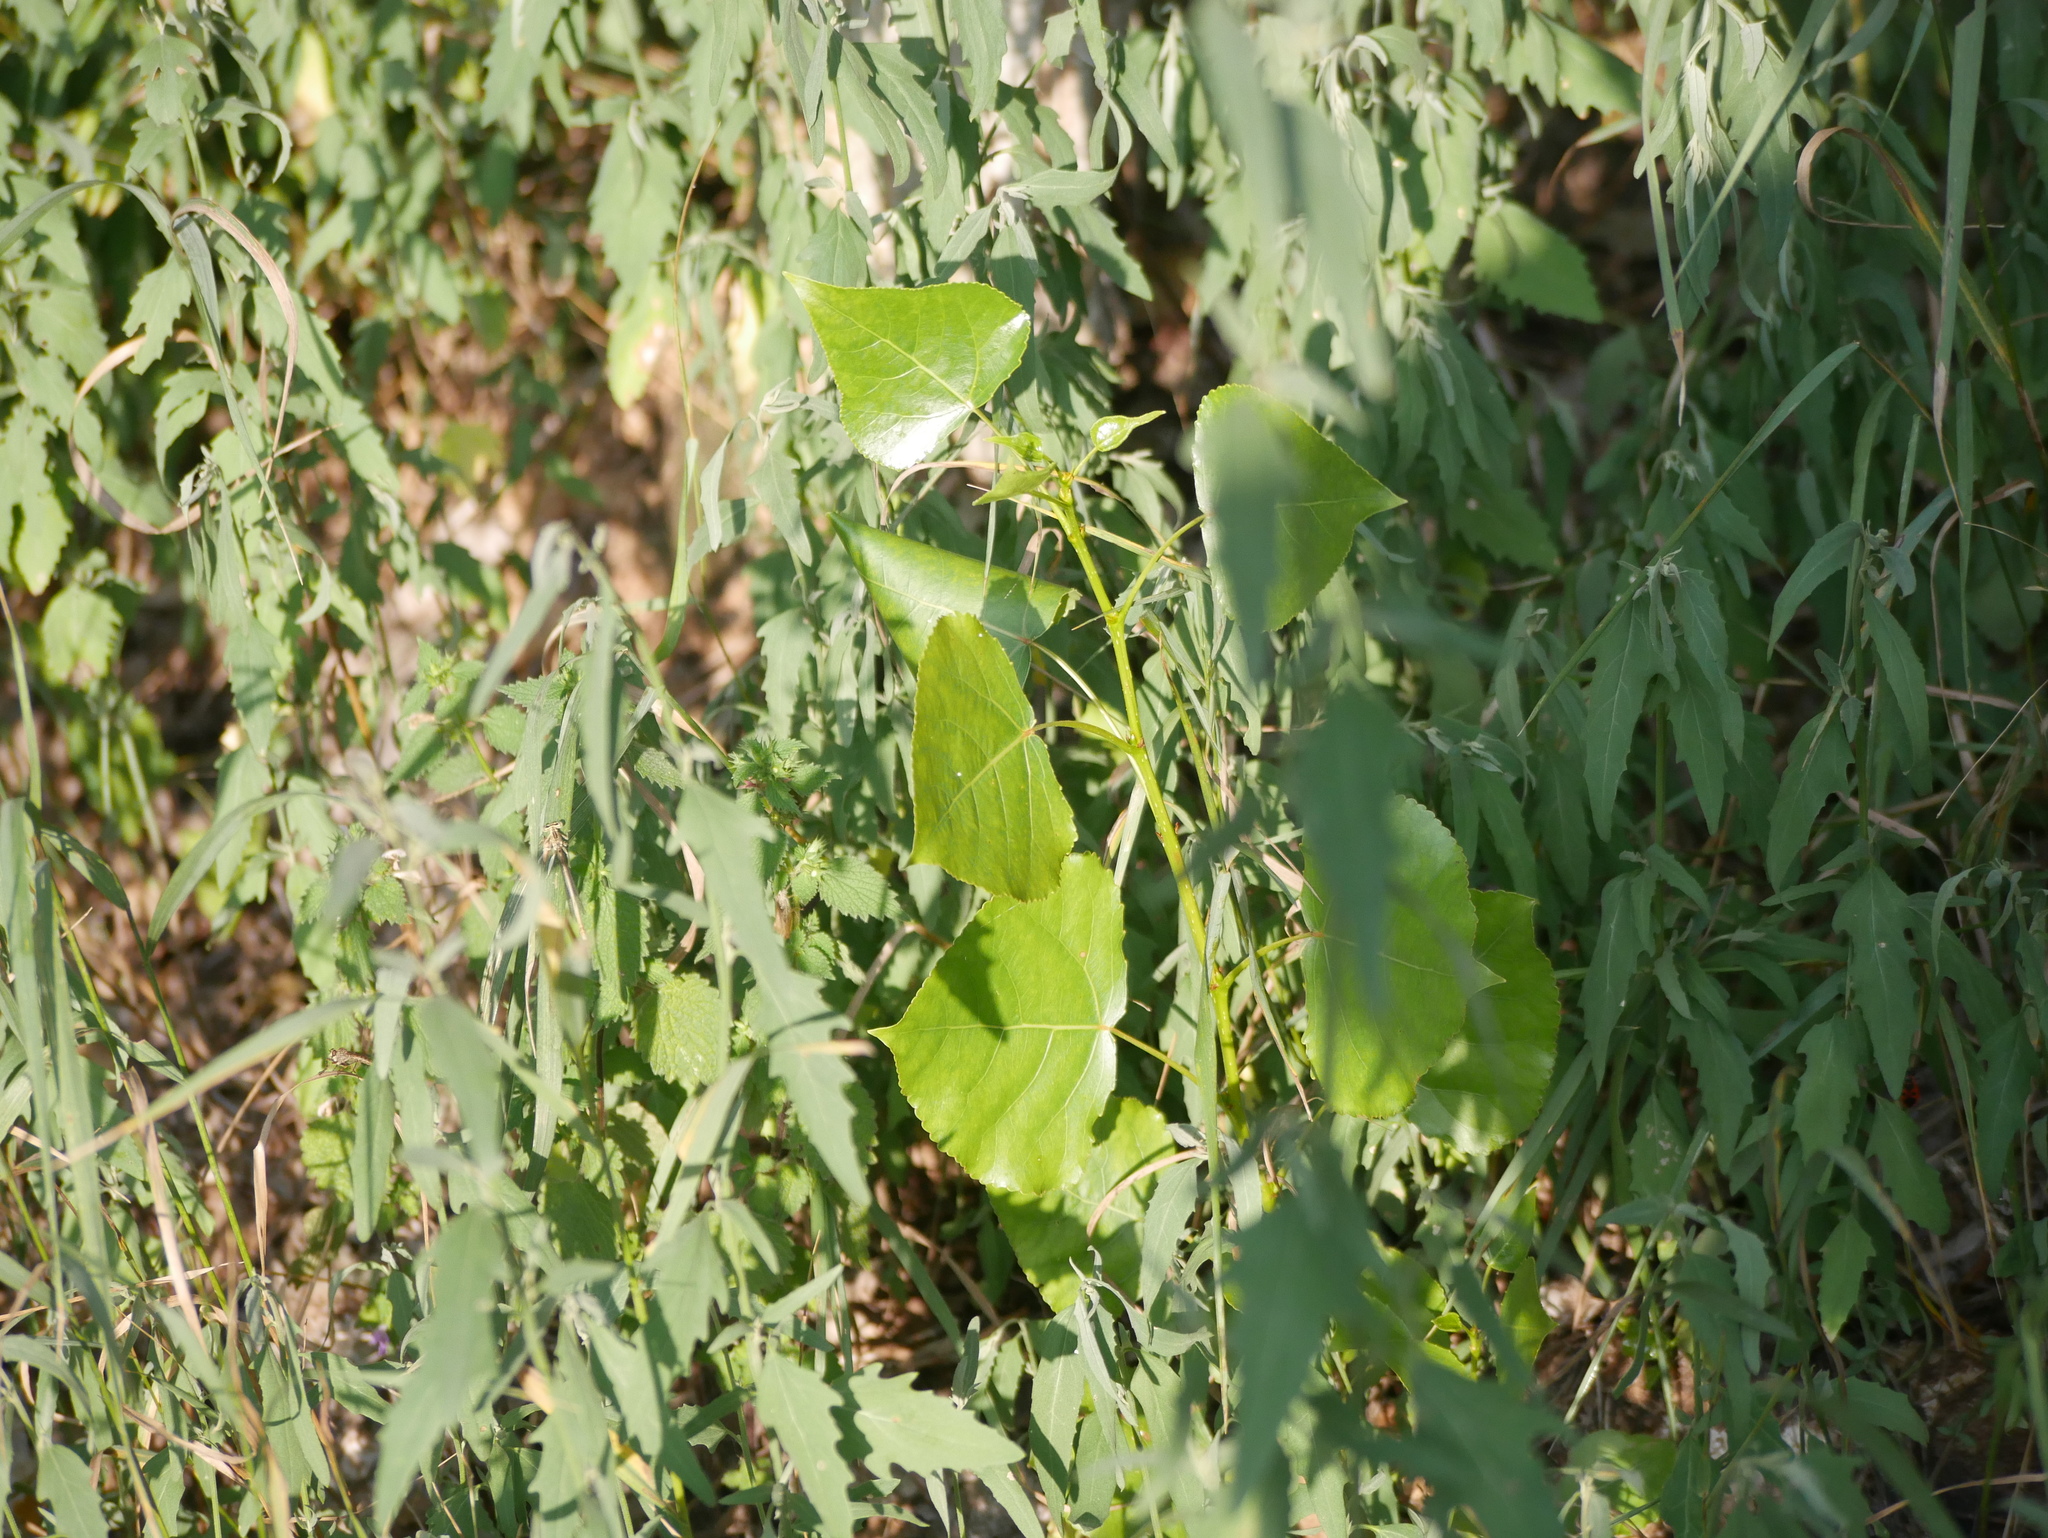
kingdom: Plantae
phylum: Tracheophyta
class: Magnoliopsida
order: Malpighiales
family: Salicaceae
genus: Populus
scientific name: Populus nigra
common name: Black poplar
